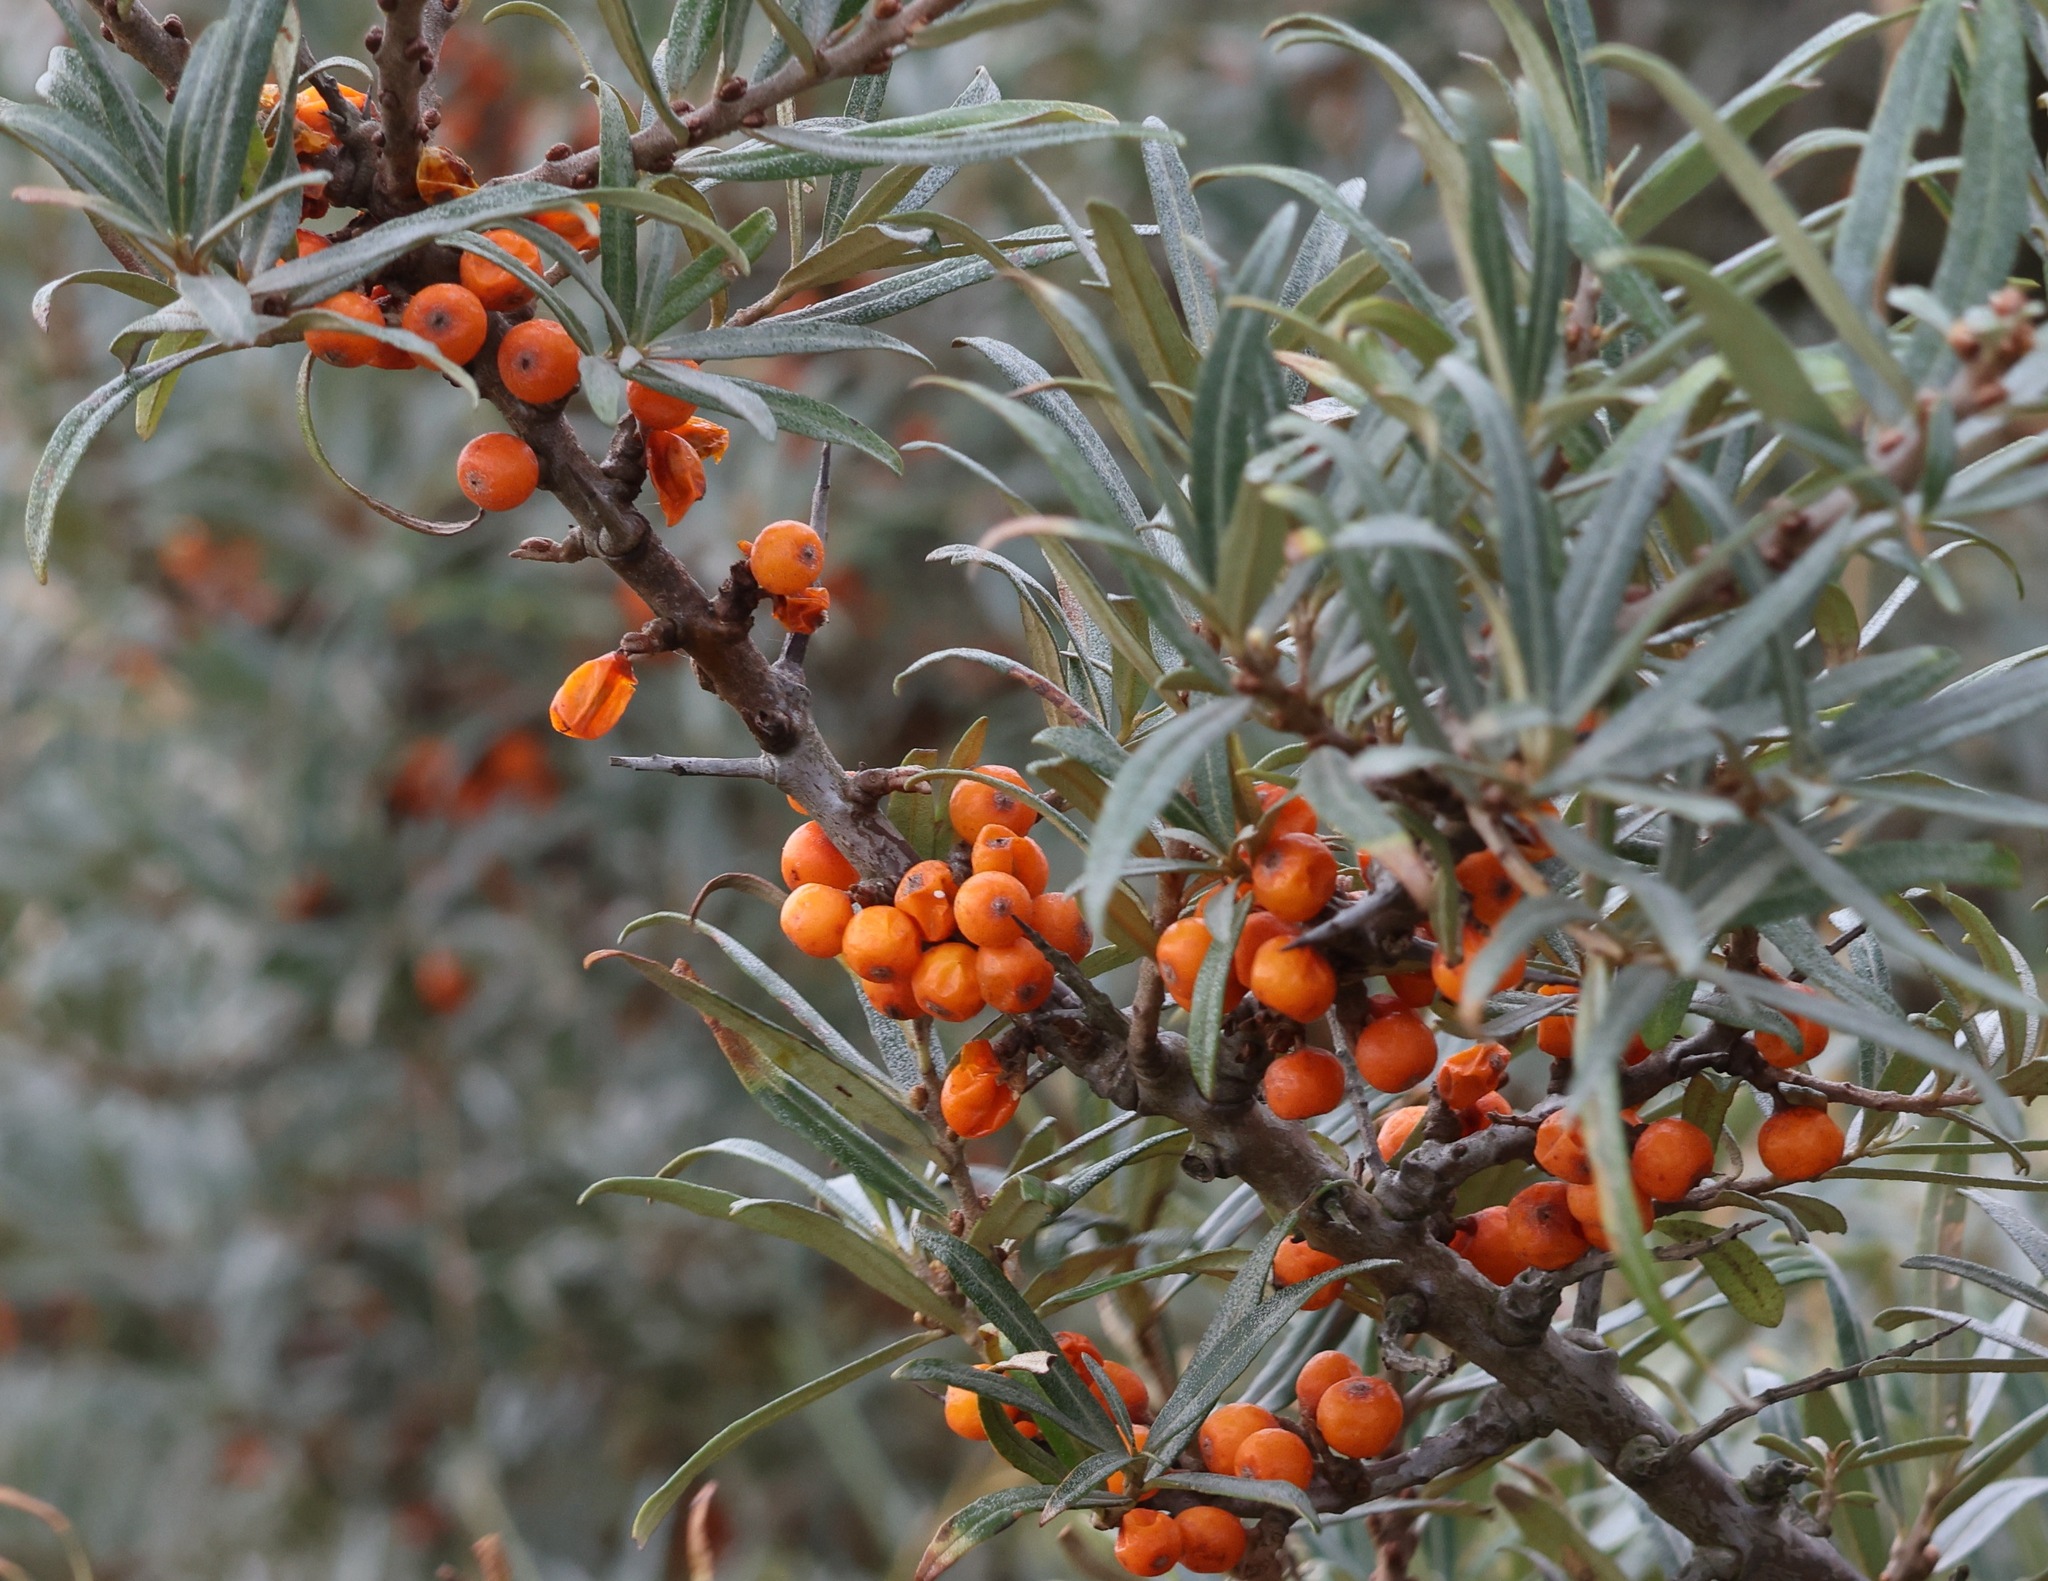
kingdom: Plantae
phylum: Tracheophyta
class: Magnoliopsida
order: Rosales
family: Elaeagnaceae
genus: Hippophae
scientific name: Hippophae rhamnoides
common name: Sea-buckthorn
